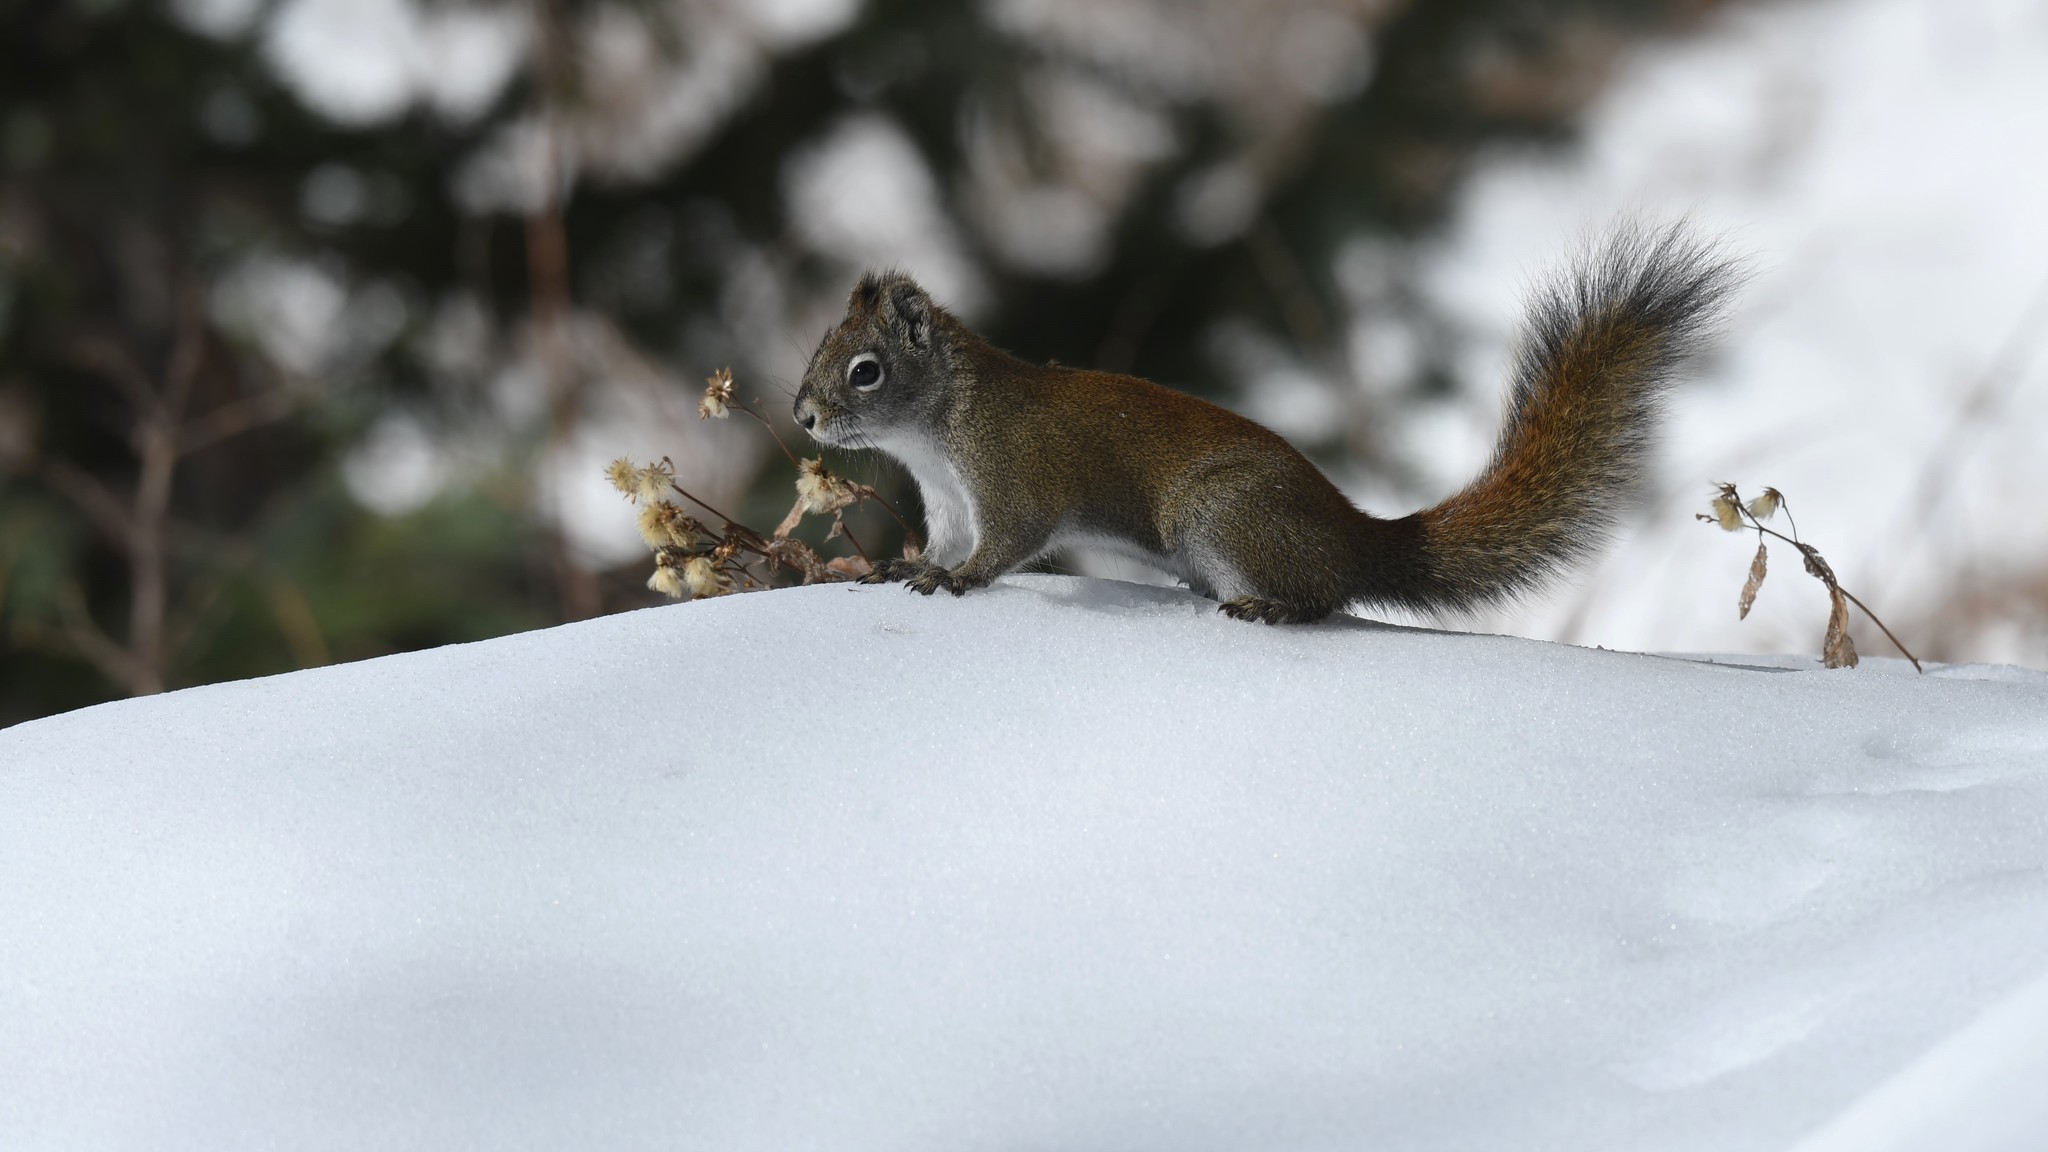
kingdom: Animalia
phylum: Chordata
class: Mammalia
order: Rodentia
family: Sciuridae
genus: Tamiasciurus
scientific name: Tamiasciurus hudsonicus
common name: Red squirrel
